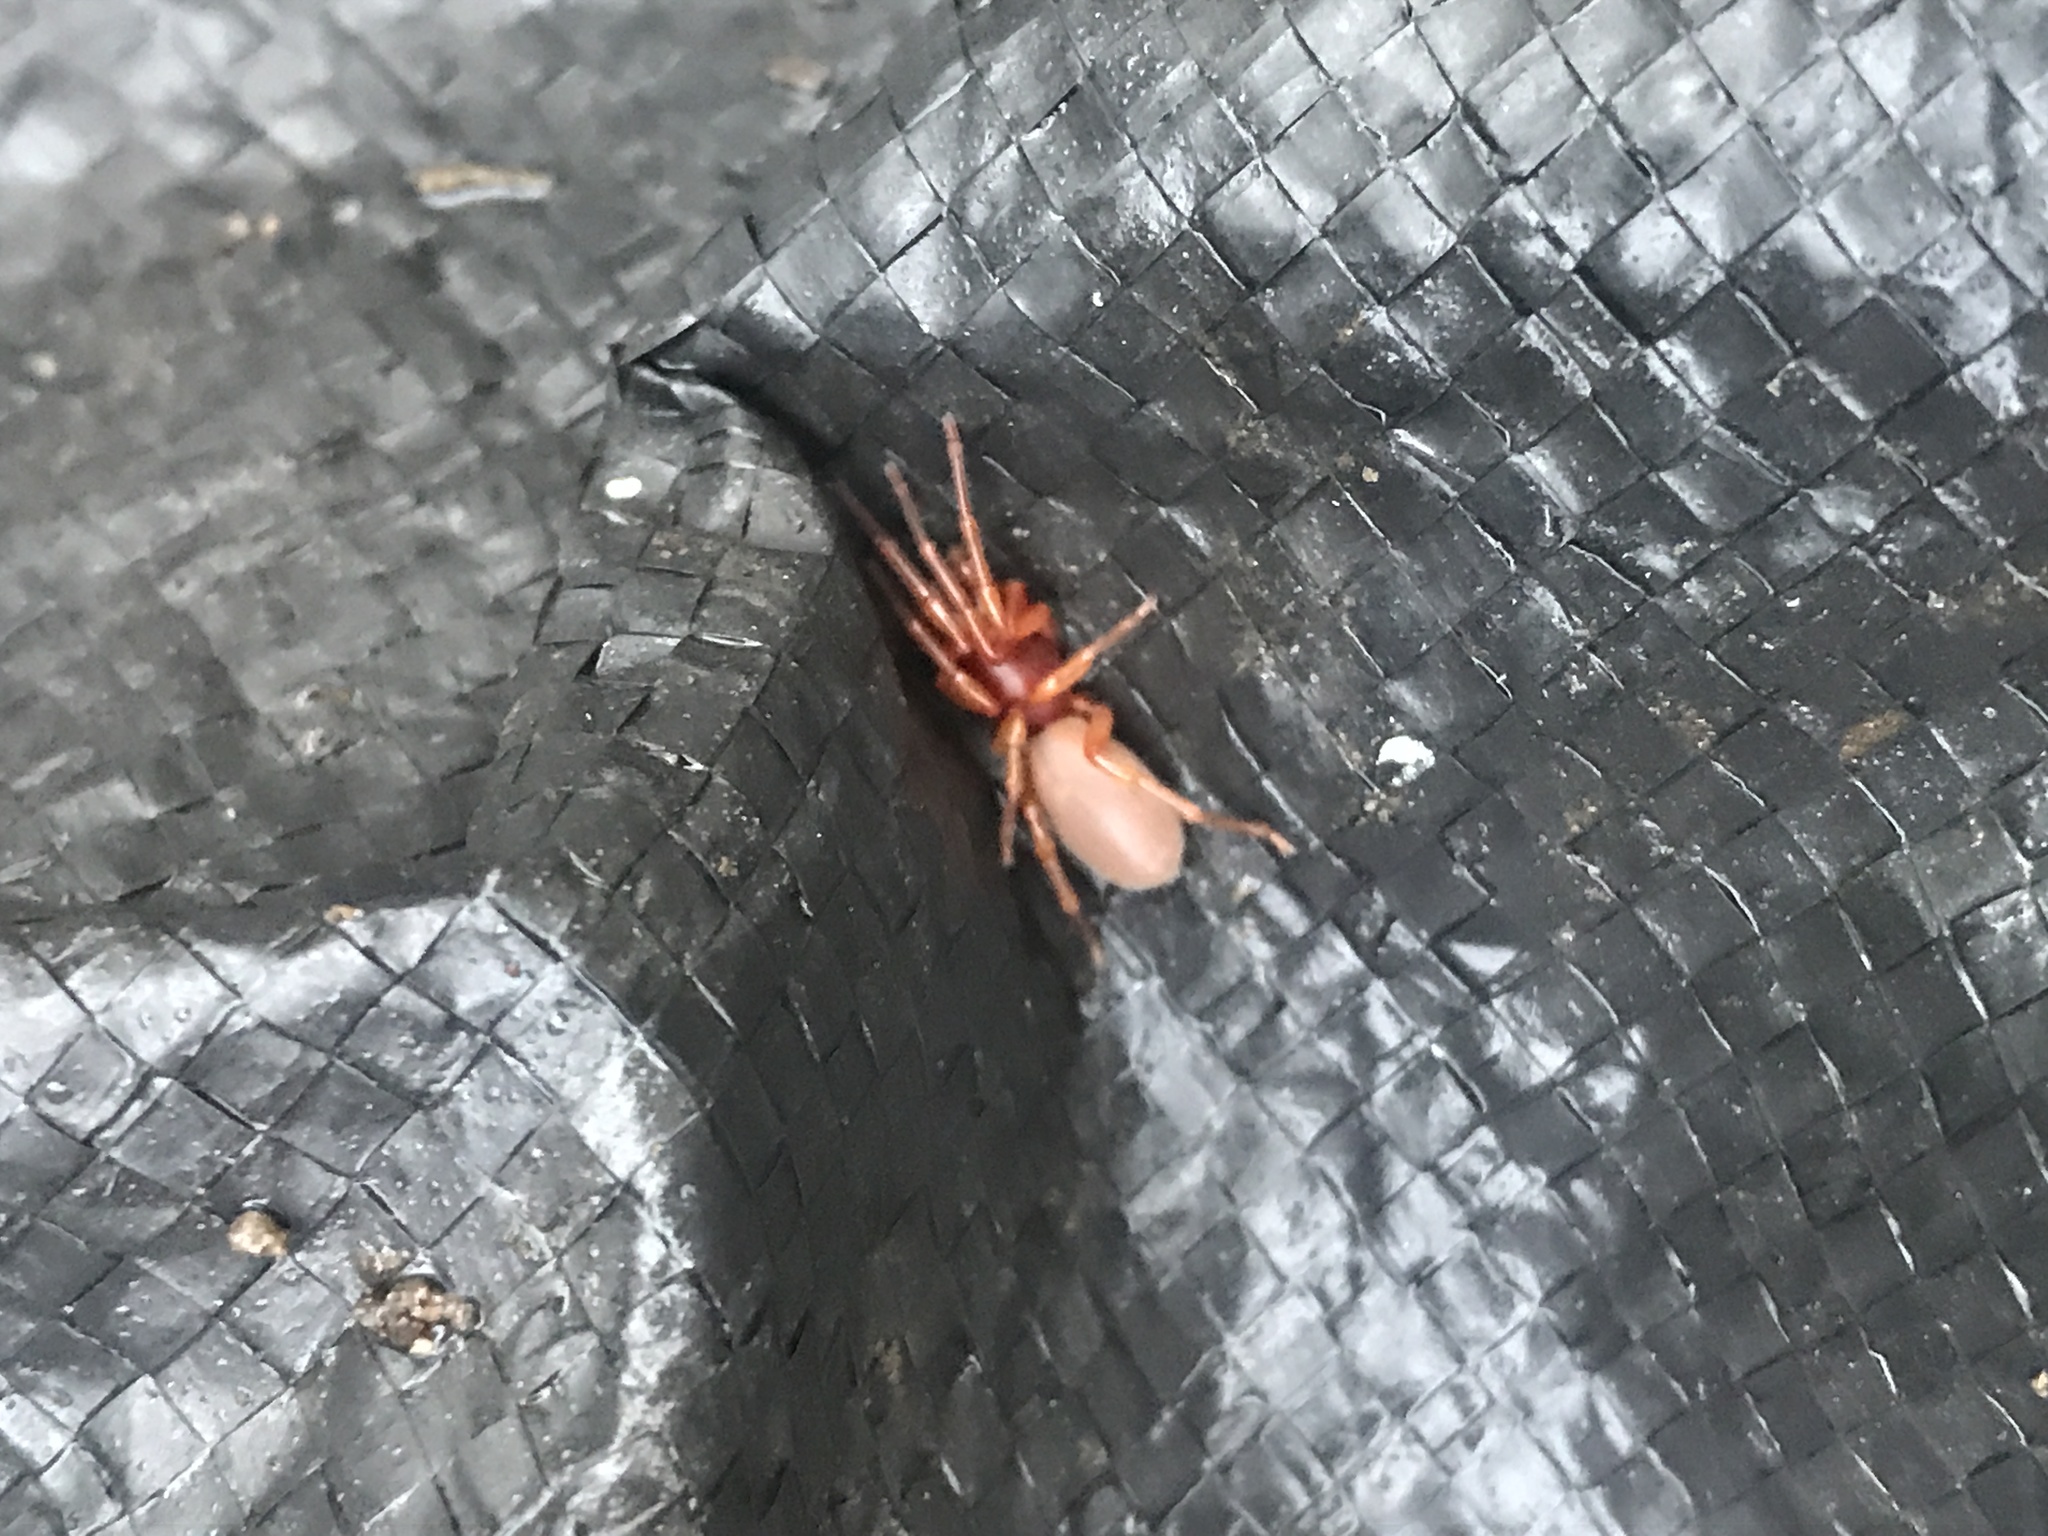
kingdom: Animalia
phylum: Arthropoda
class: Arachnida
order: Araneae
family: Dysderidae
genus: Dysdera
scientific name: Dysdera crocata
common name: Woodlouse spider
